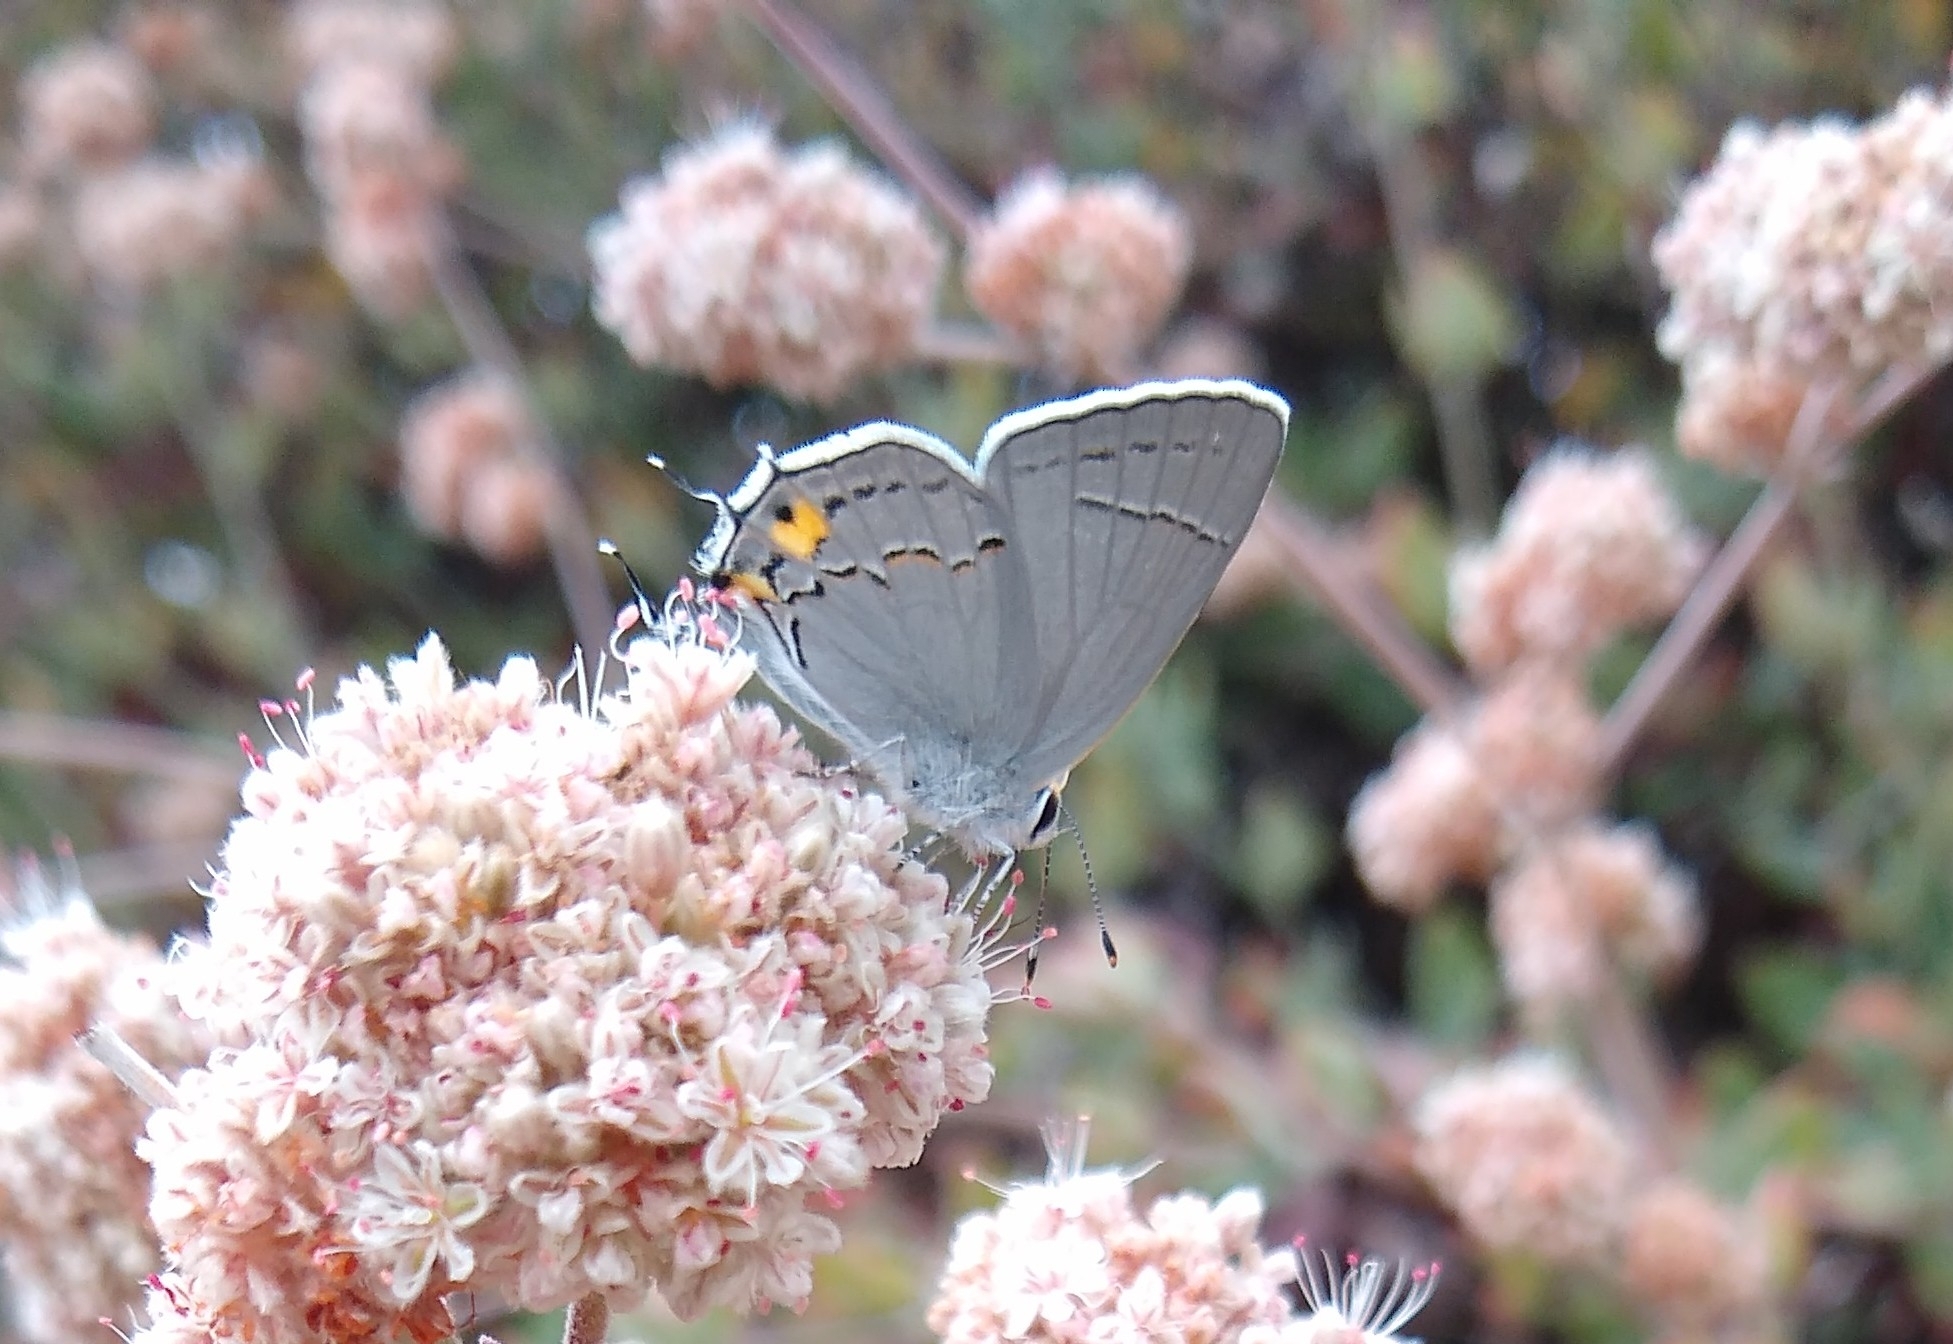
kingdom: Animalia
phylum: Arthropoda
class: Insecta
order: Lepidoptera
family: Lycaenidae
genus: Strymon
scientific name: Strymon melinus
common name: Gray hairstreak
